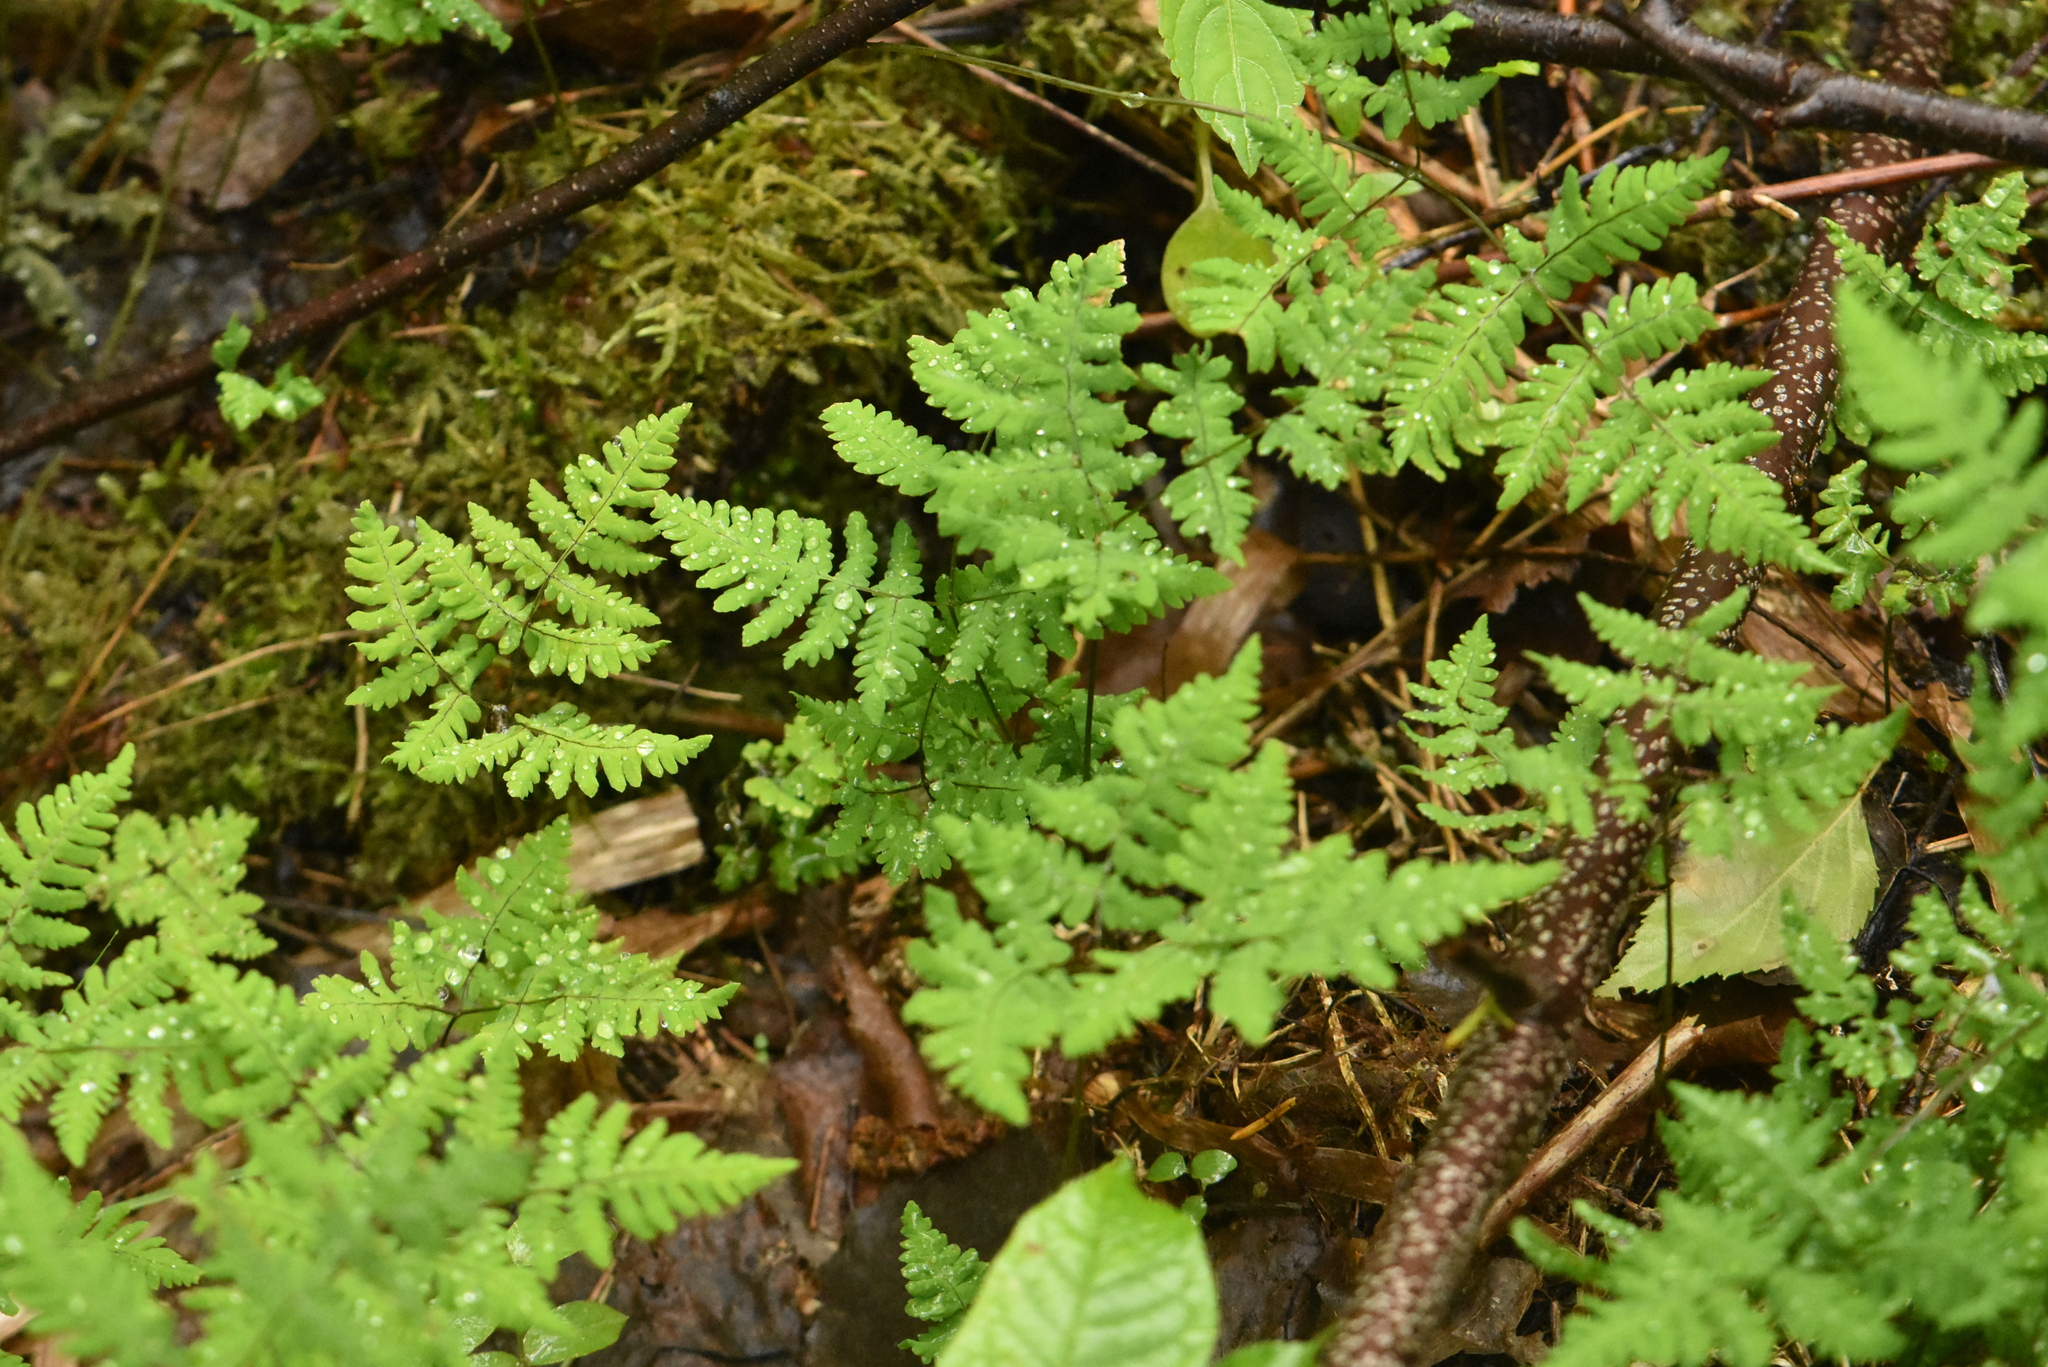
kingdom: Plantae
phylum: Tracheophyta
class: Polypodiopsida
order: Polypodiales
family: Cystopteridaceae
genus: Gymnocarpium
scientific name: Gymnocarpium dryopteris
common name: Oak fern
